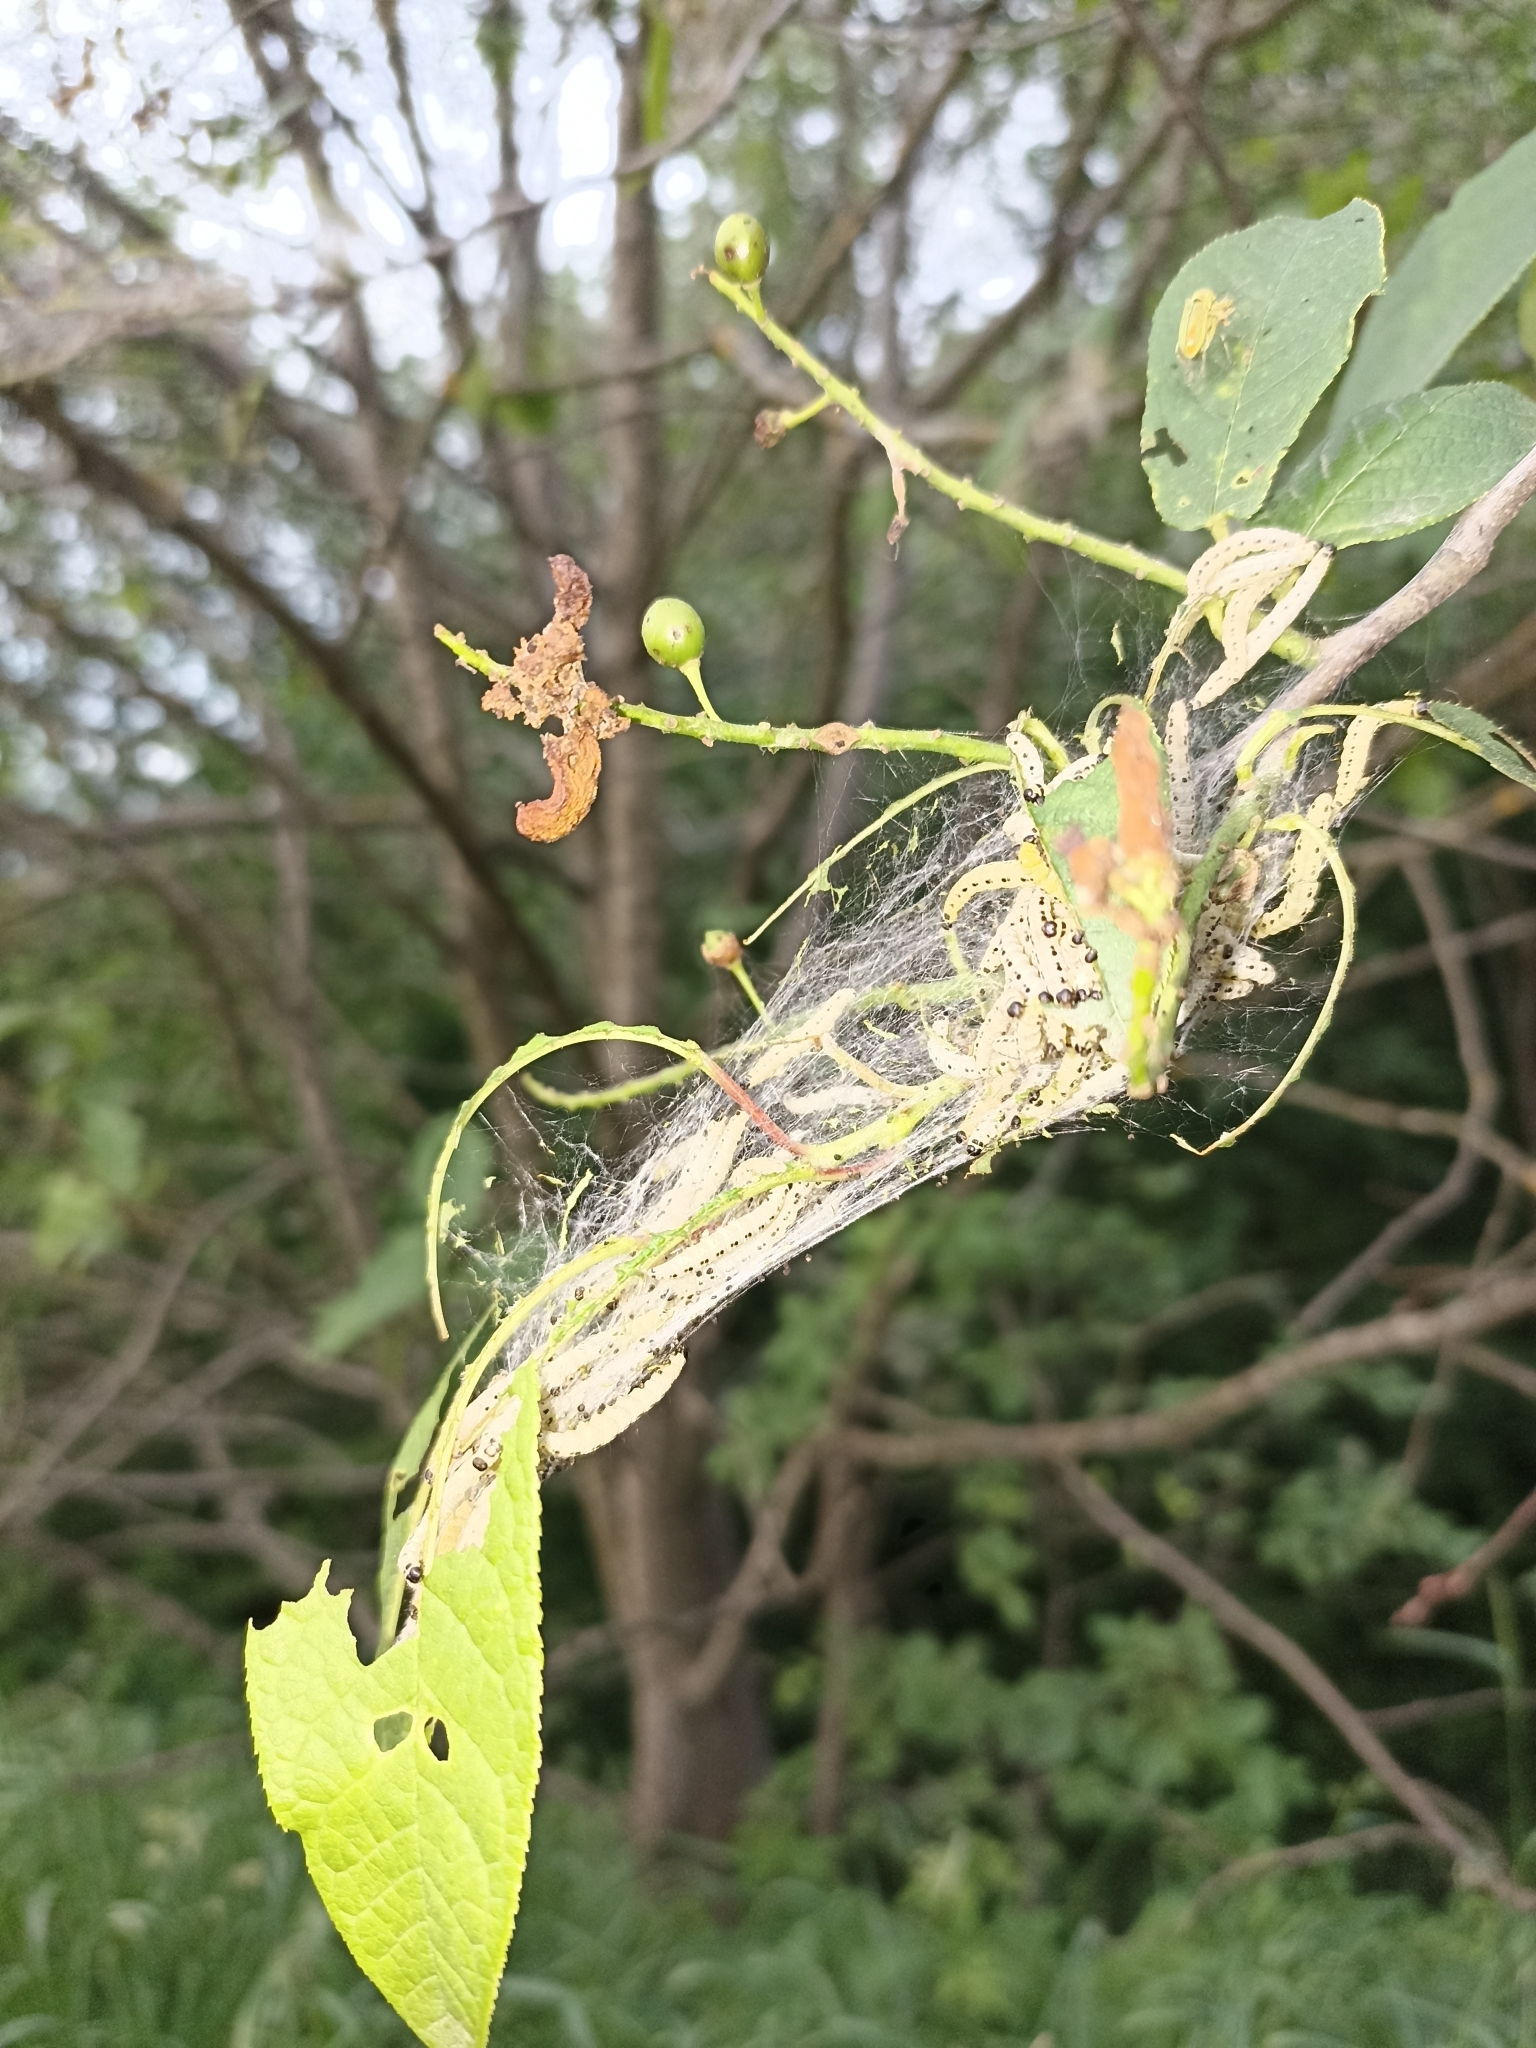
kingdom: Animalia
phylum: Arthropoda
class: Insecta
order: Lepidoptera
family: Yponomeutidae
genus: Yponomeuta
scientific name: Yponomeuta evonymella
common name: Bird-cherry ermine
